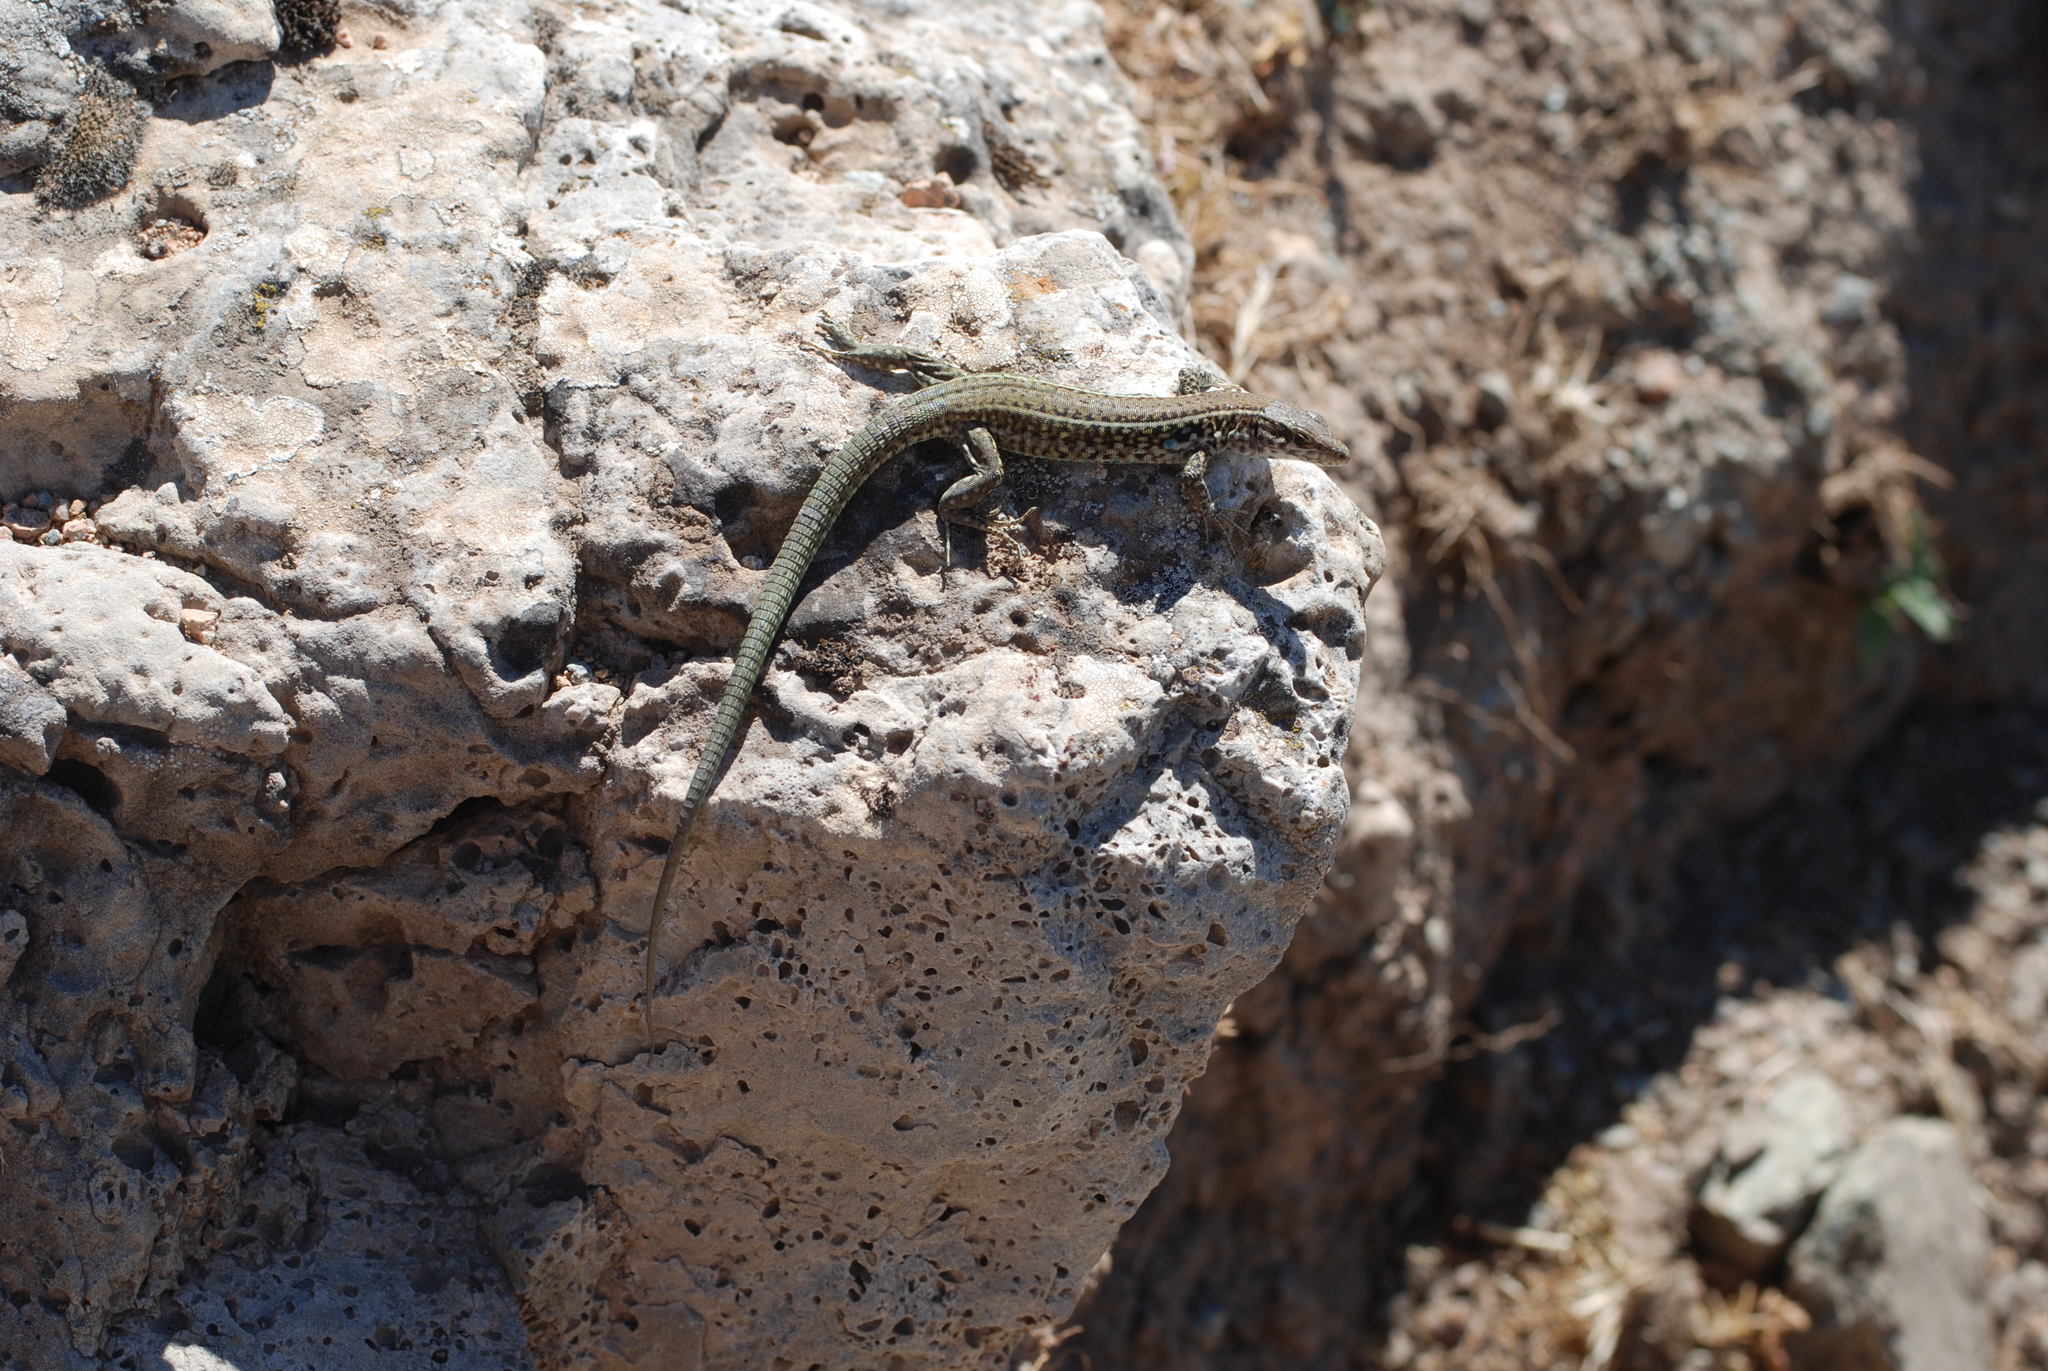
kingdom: Animalia
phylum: Chordata
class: Squamata
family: Lacertidae
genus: Podarcis
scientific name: Podarcis tiliguerta
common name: Tyrrhenian wall lizard
